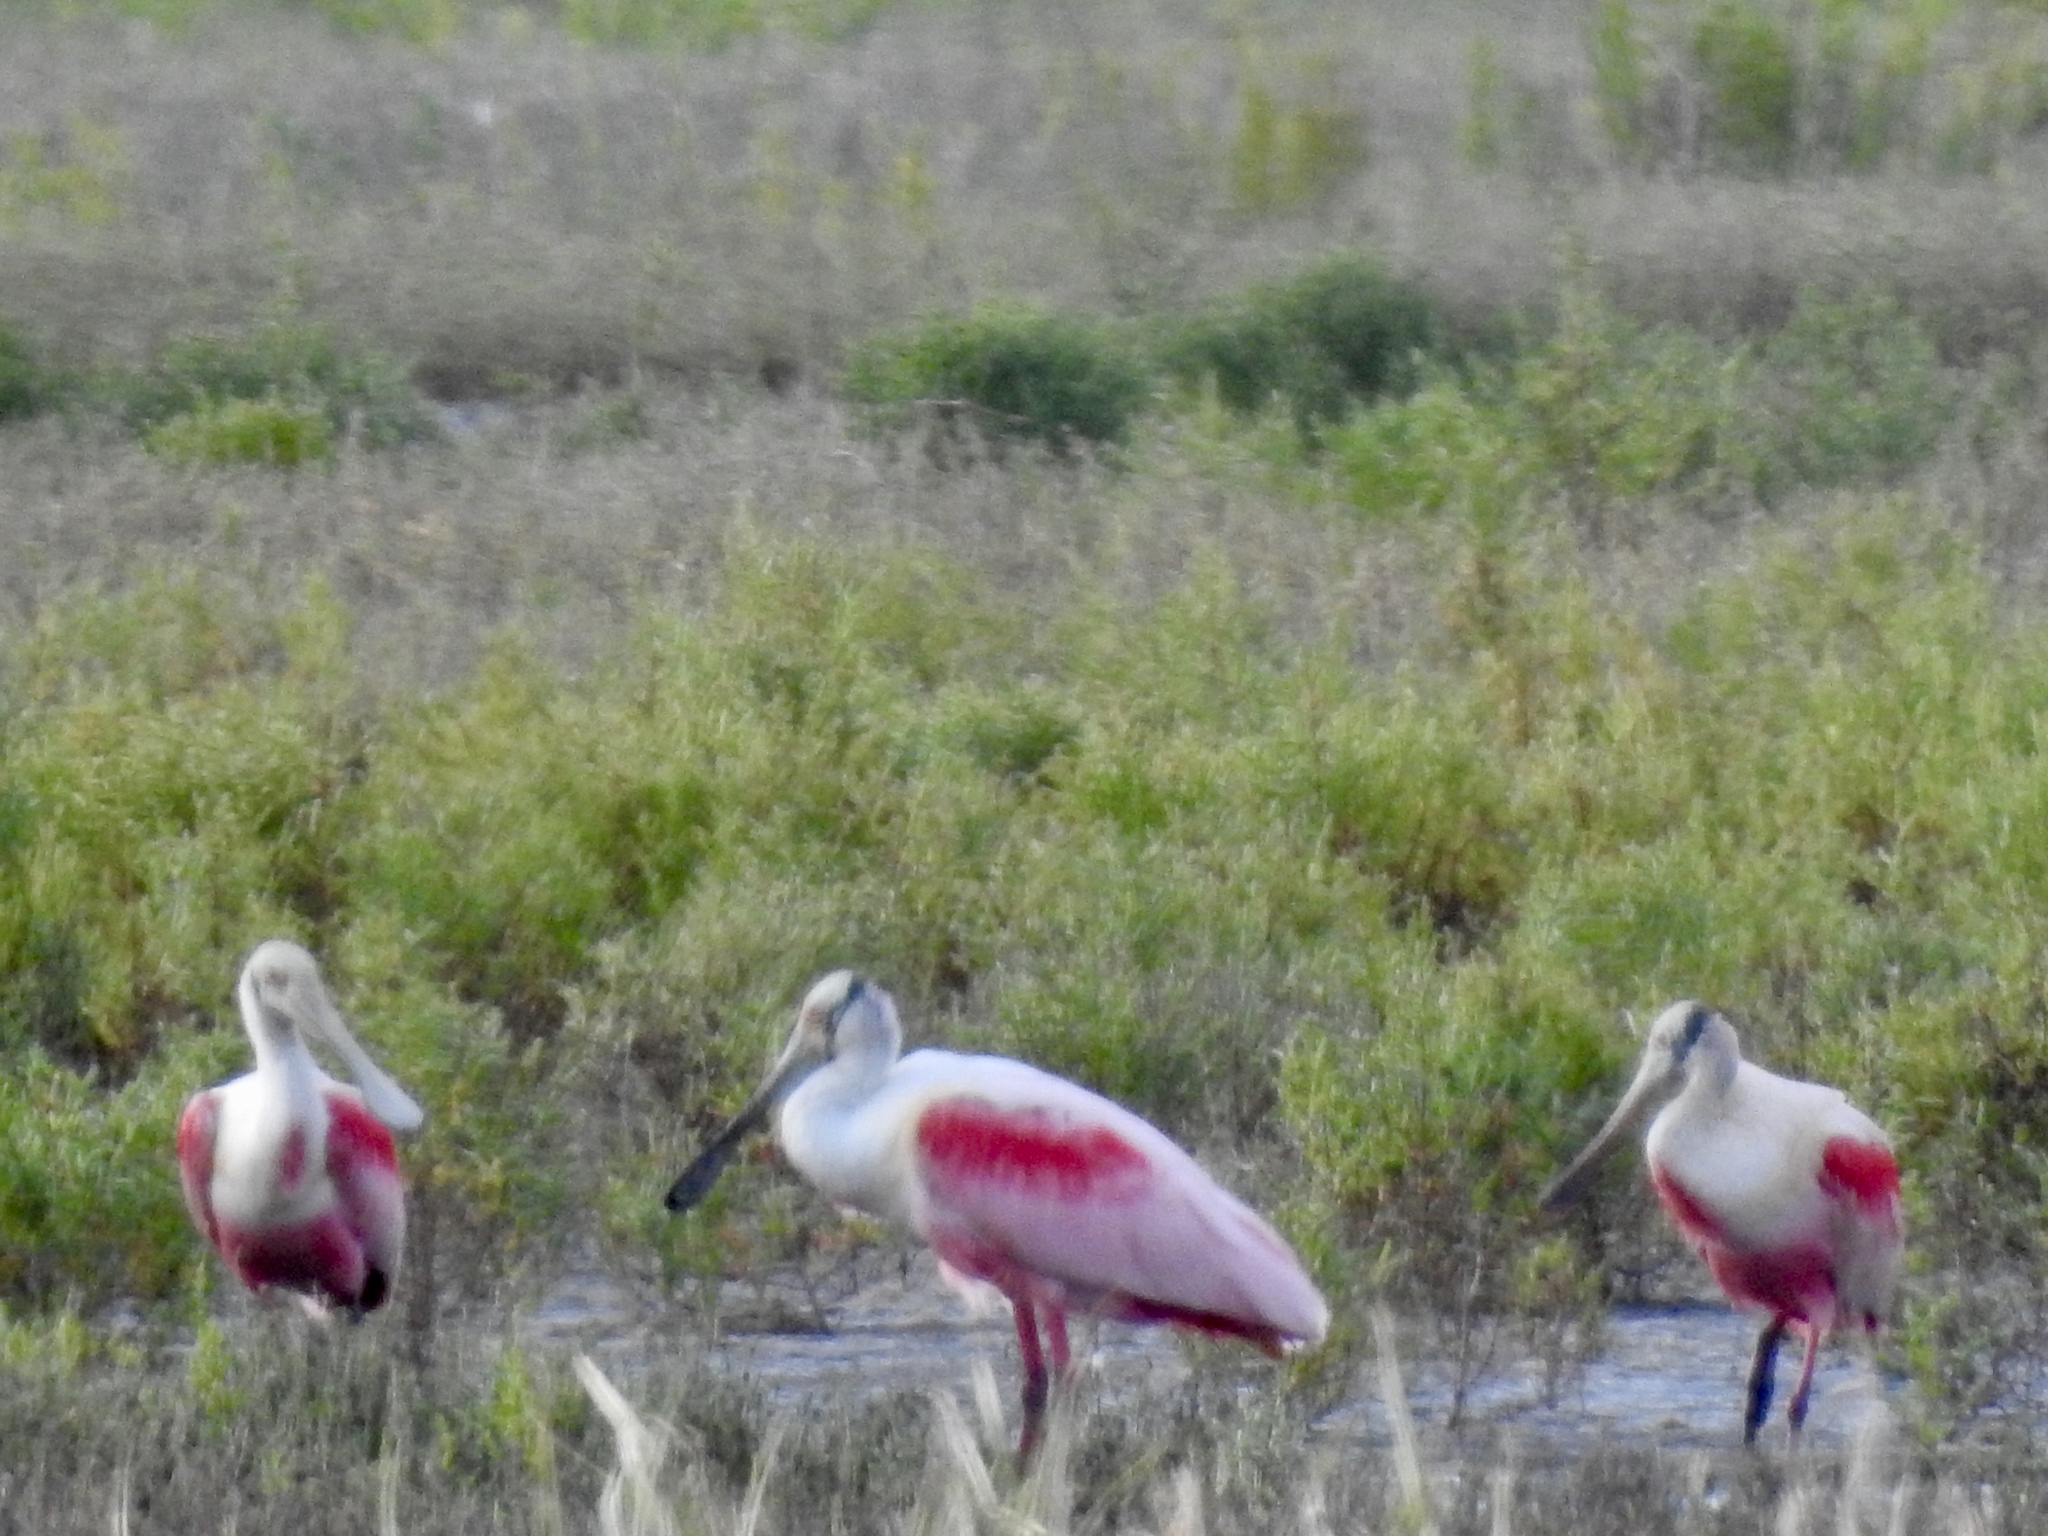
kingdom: Animalia
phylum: Chordata
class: Aves
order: Pelecaniformes
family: Threskiornithidae
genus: Platalea
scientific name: Platalea ajaja
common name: Roseate spoonbill
